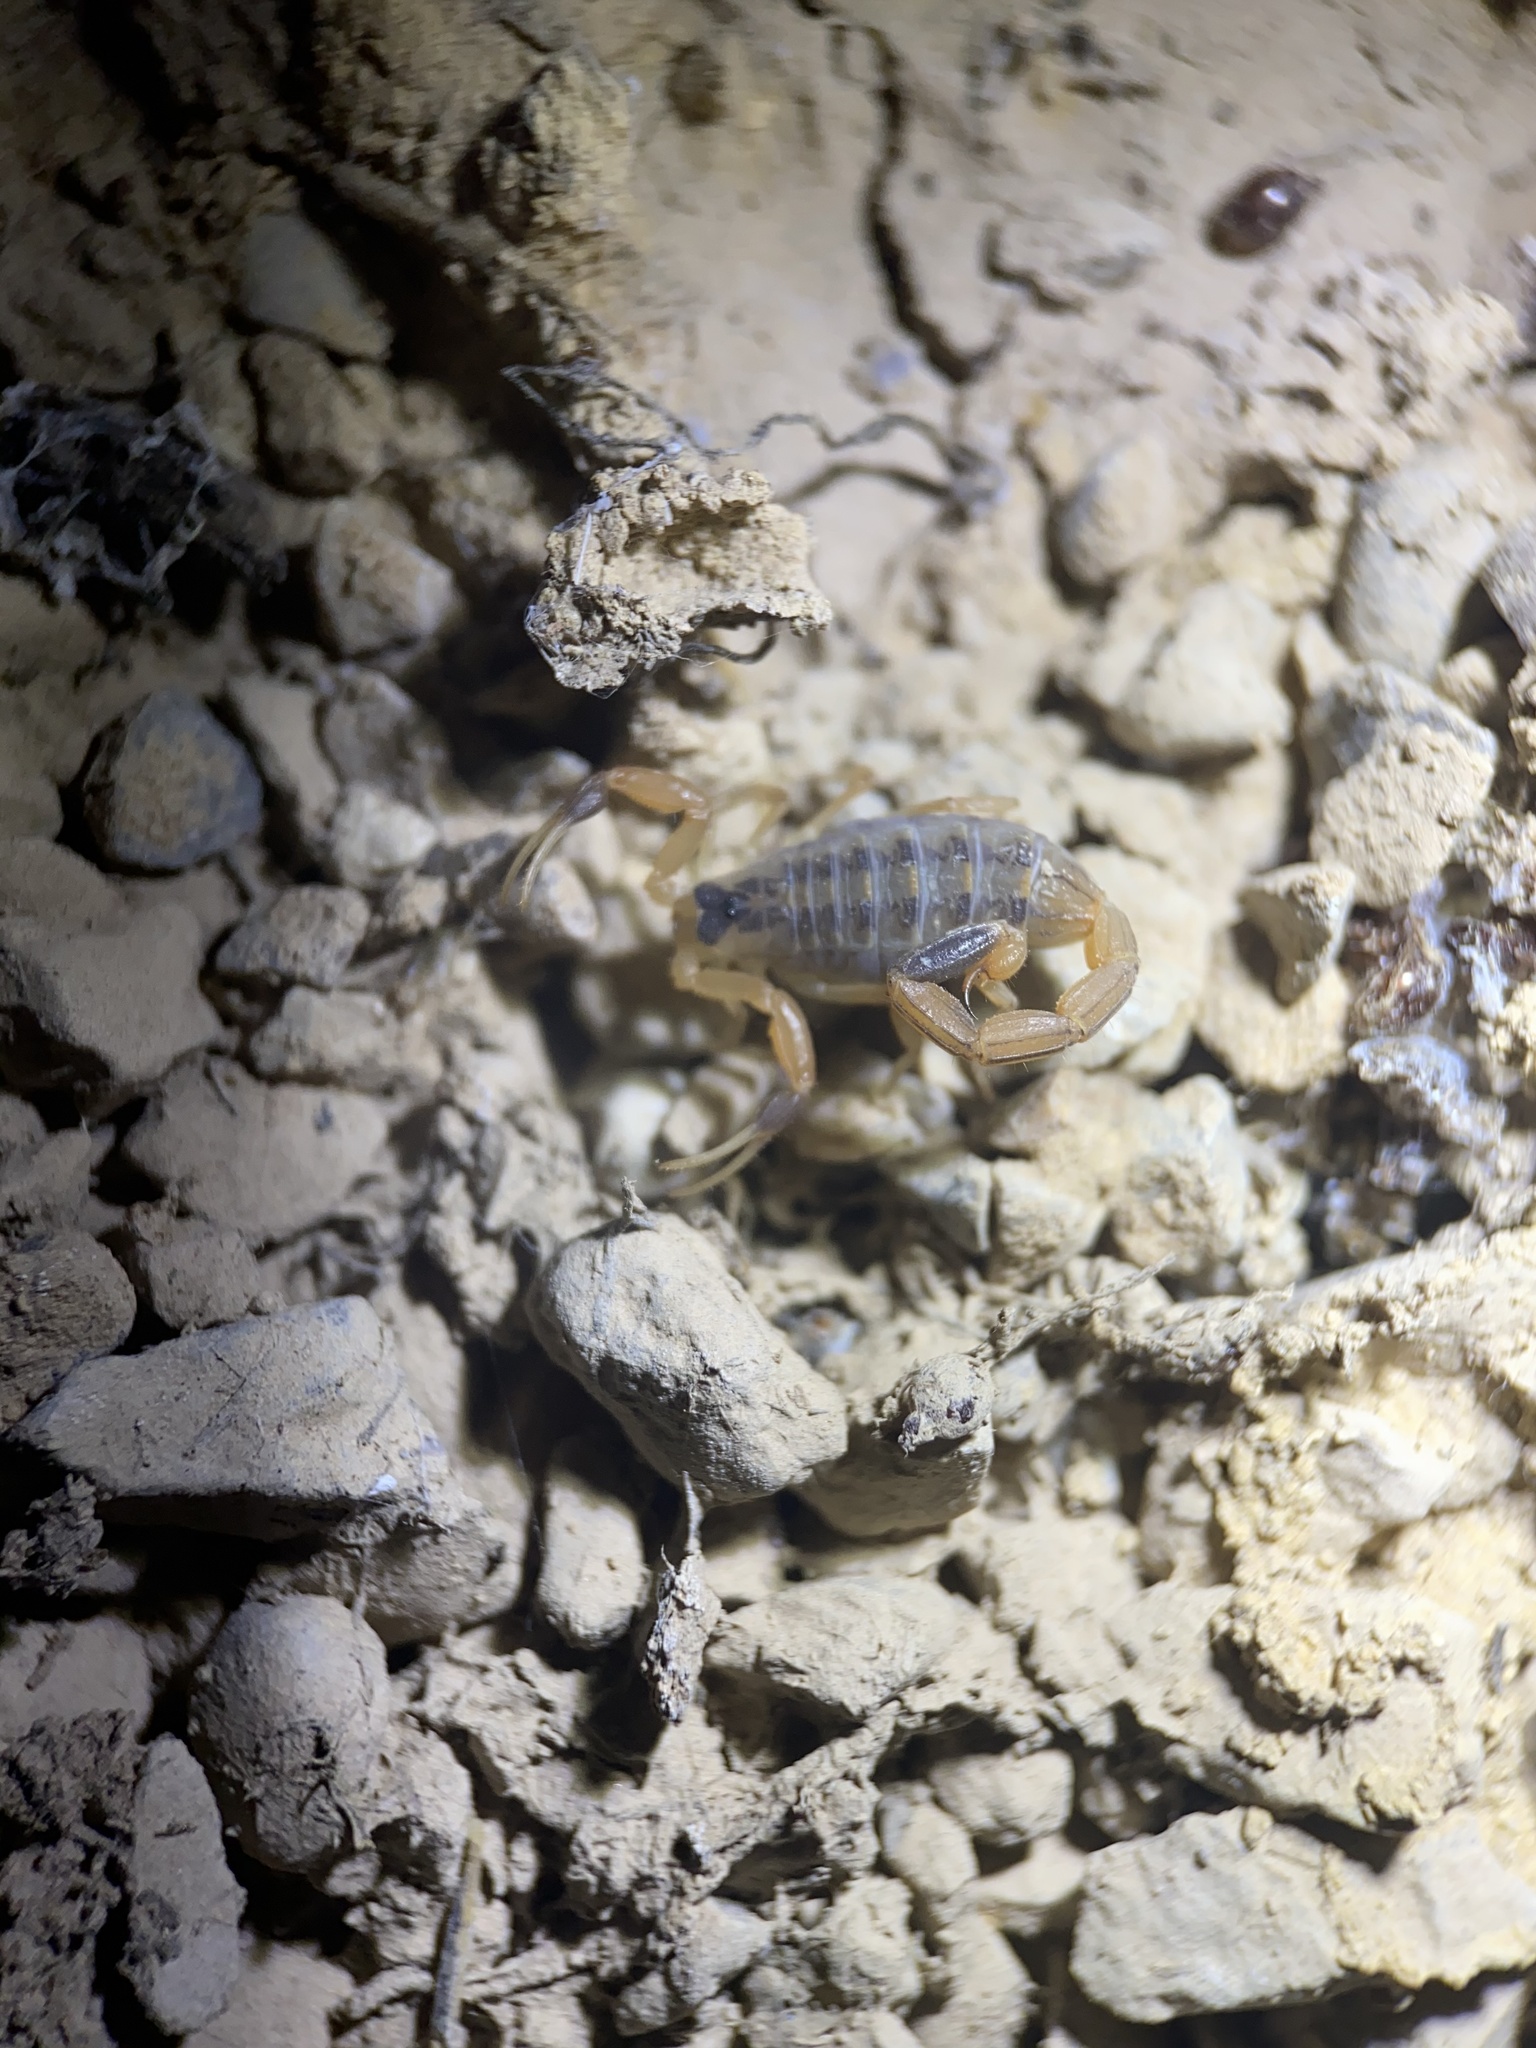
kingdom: Animalia
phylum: Arthropoda
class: Arachnida
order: Scorpiones
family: Buthidae
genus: Centruroides
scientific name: Centruroides vittatus
